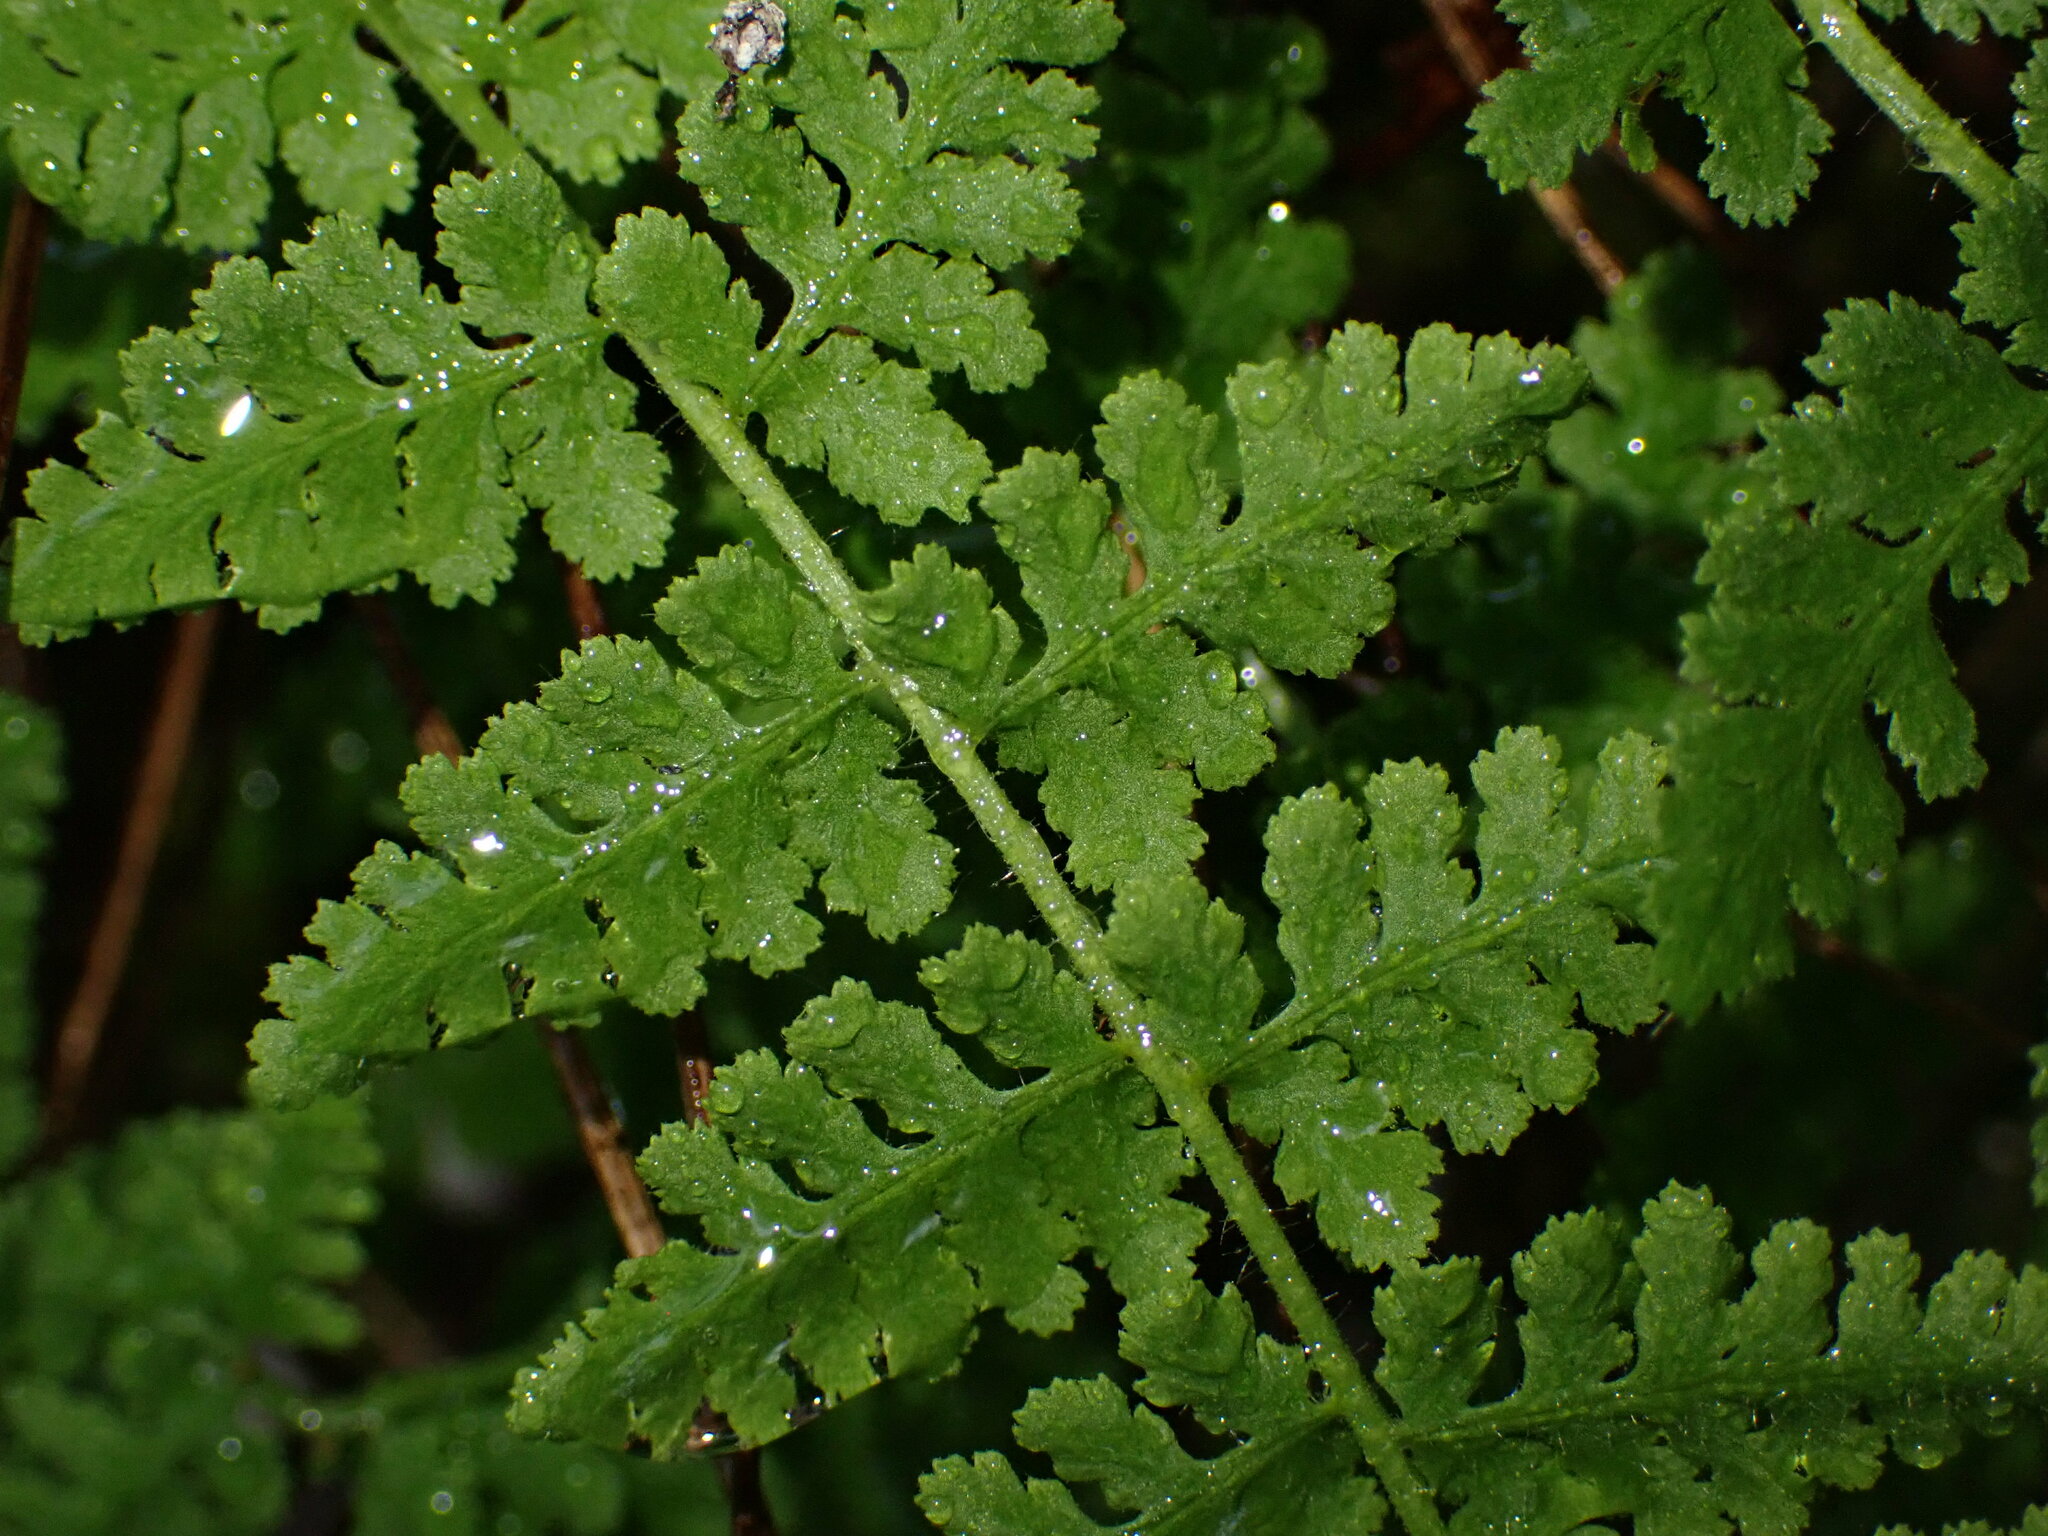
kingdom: Plantae
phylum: Tracheophyta
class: Polypodiopsida
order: Polypodiales
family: Woodsiaceae
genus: Physematium
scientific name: Physematium scopulinum
